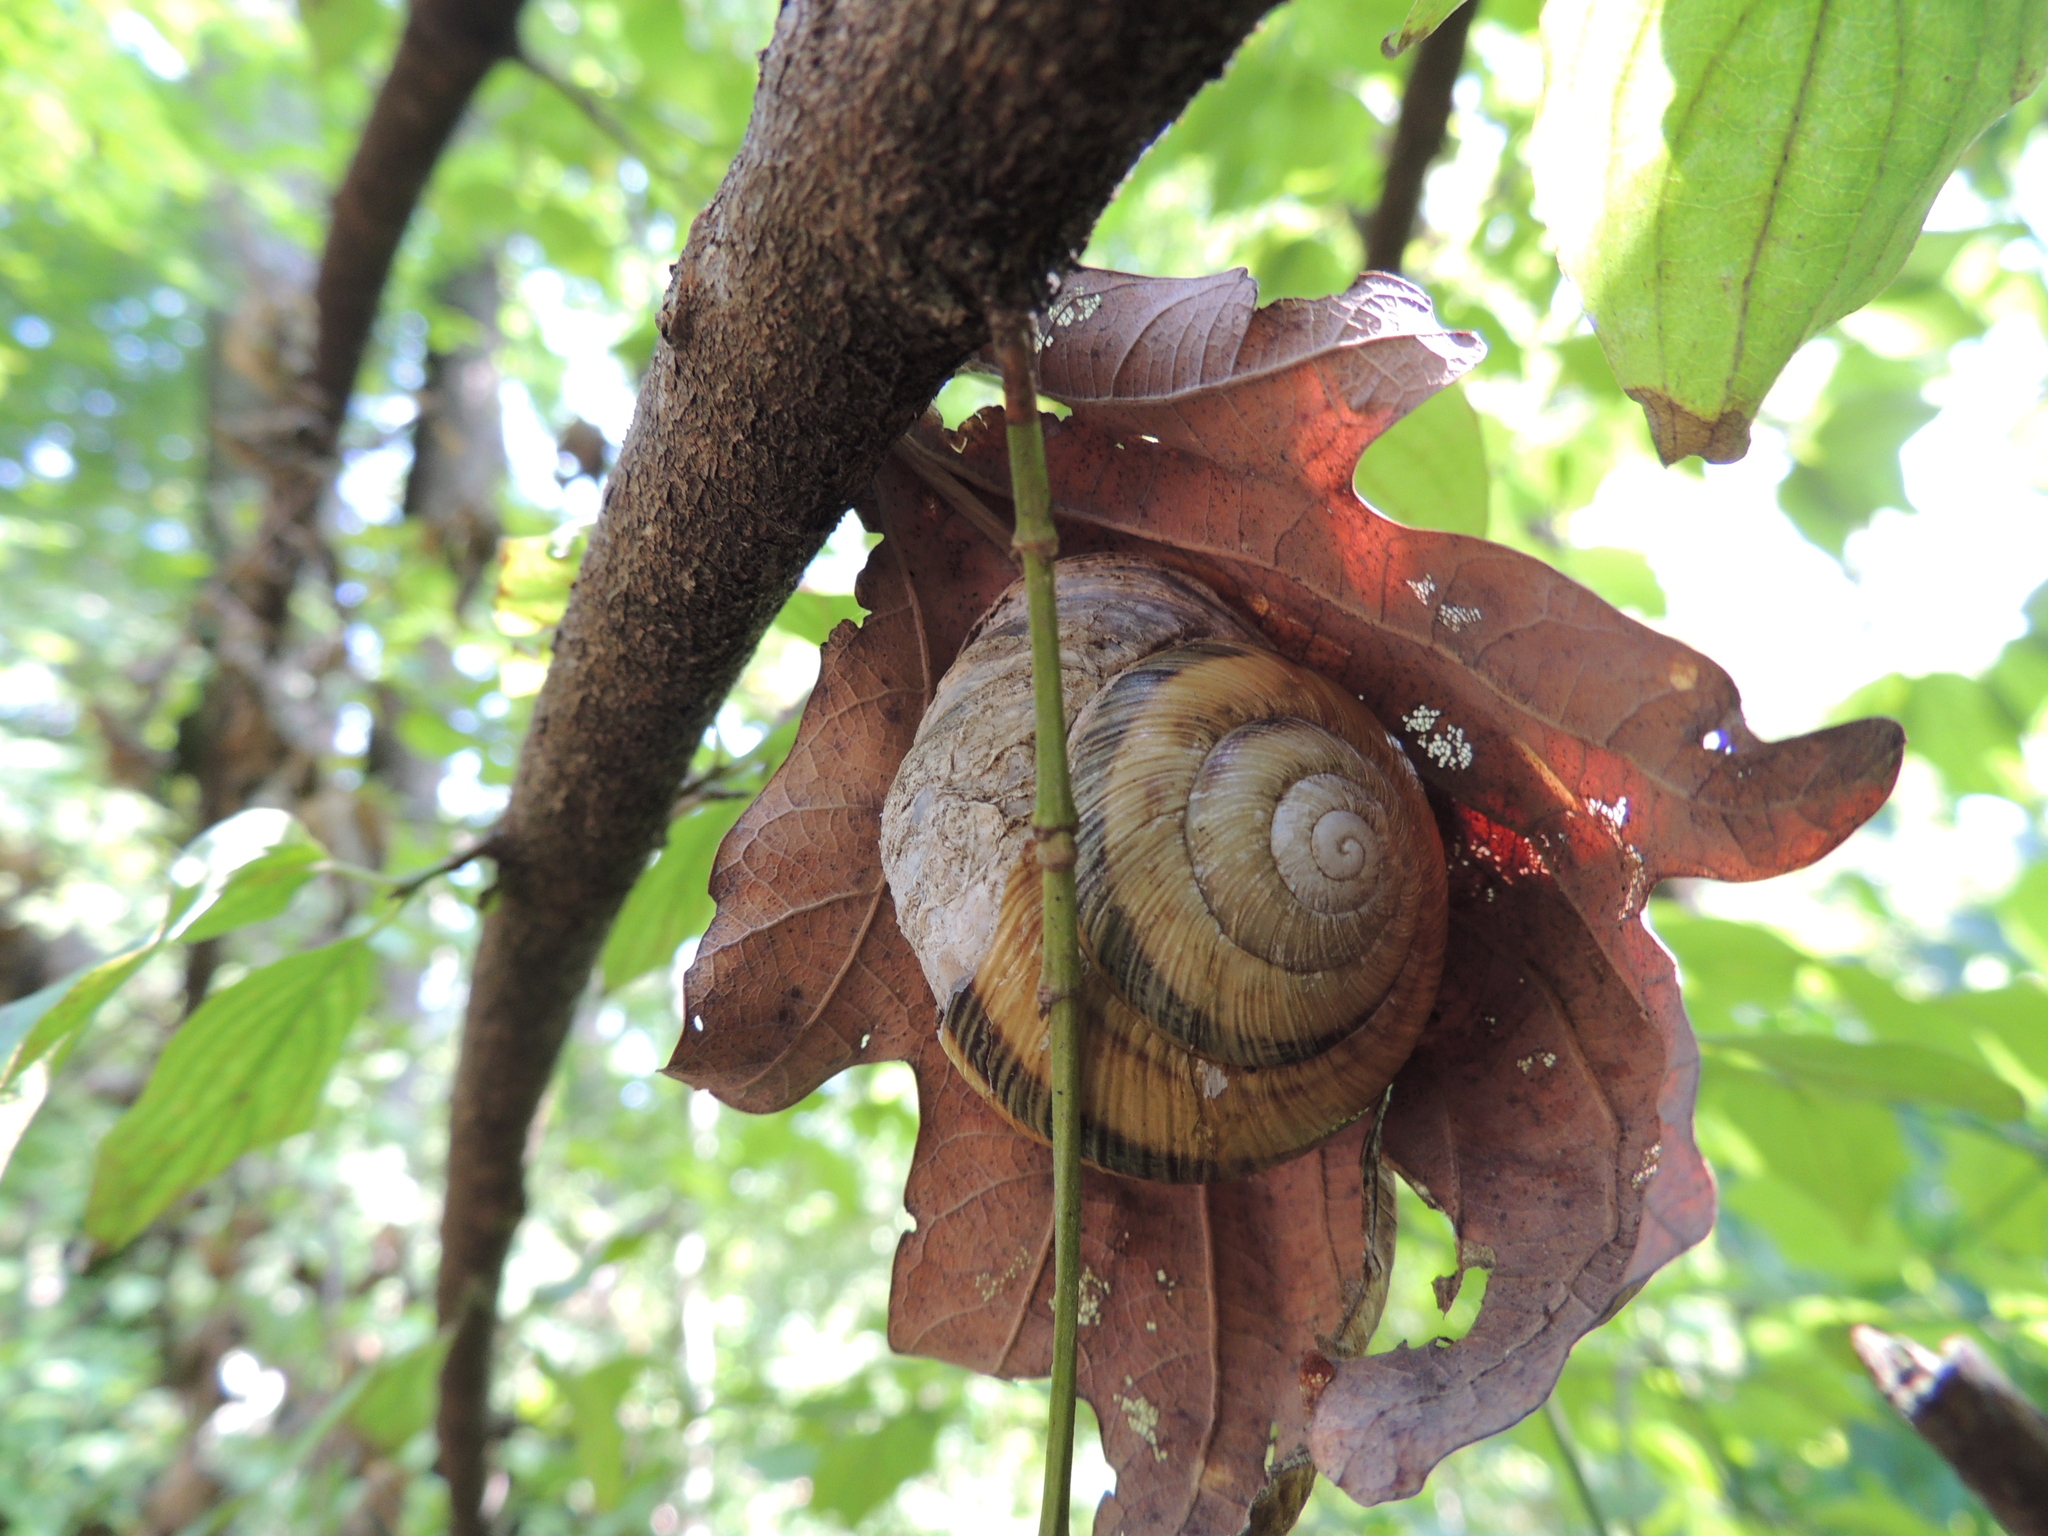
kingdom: Animalia
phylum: Mollusca
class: Gastropoda
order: Stylommatophora
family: Helicidae
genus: Caucasotachea
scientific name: Caucasotachea atrolabiata
